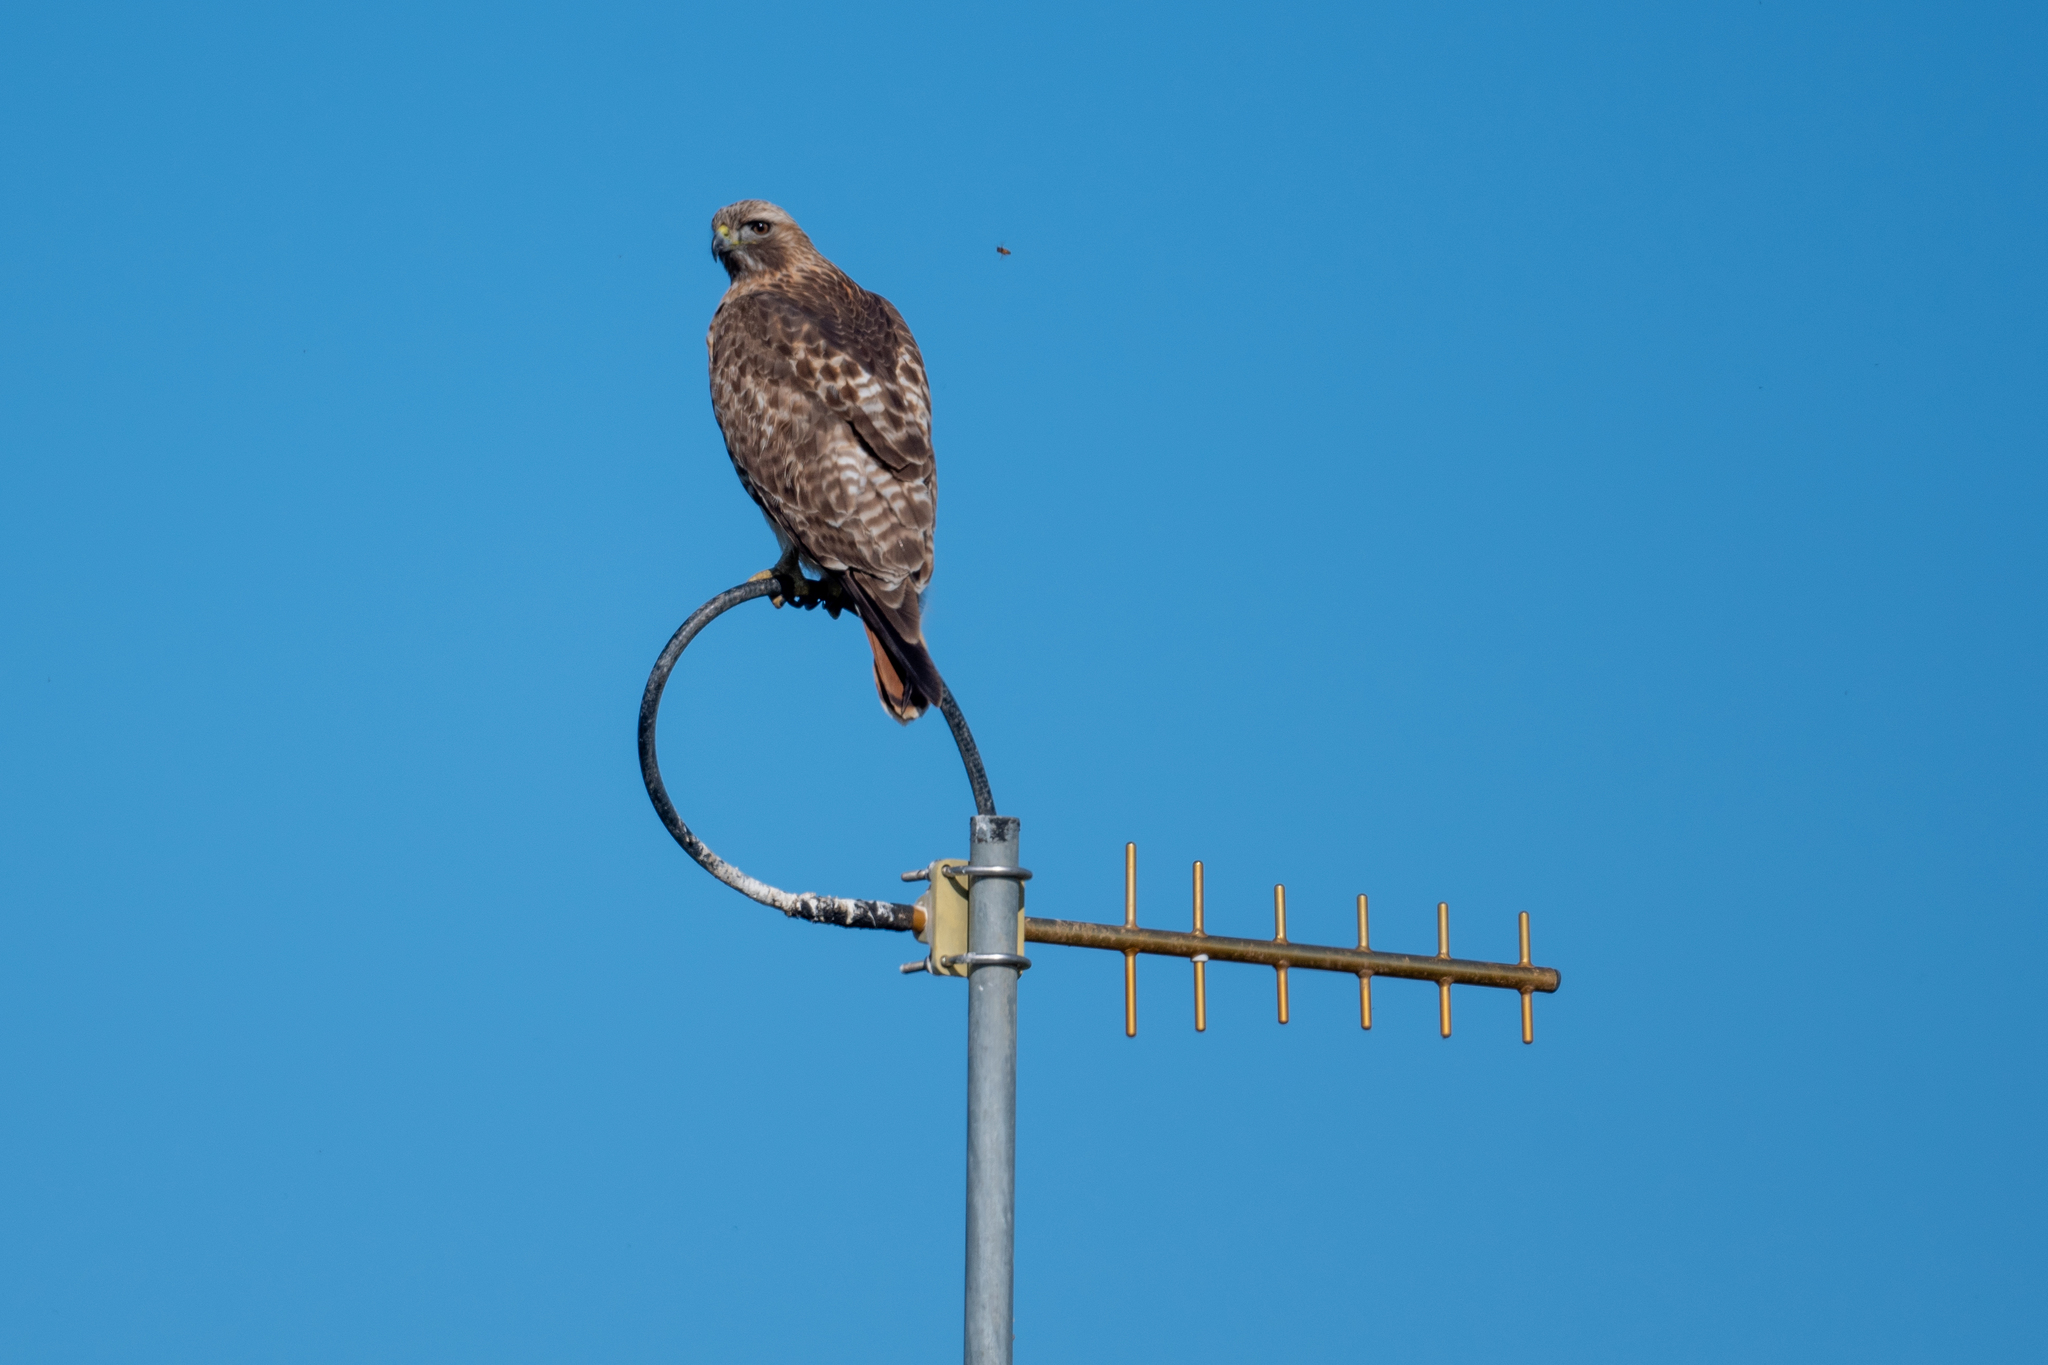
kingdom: Animalia
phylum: Chordata
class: Aves
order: Accipitriformes
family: Accipitridae
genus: Buteo
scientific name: Buteo jamaicensis
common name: Red-tailed hawk
